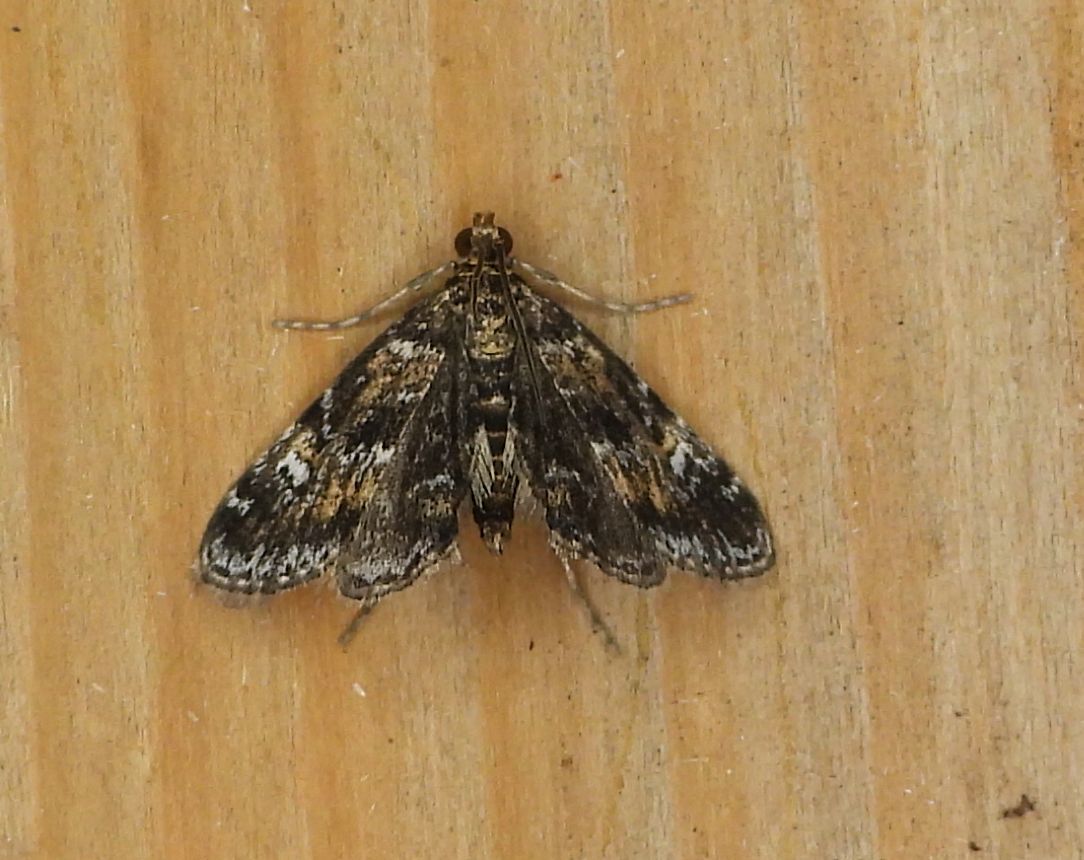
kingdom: Animalia
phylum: Arthropoda
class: Insecta
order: Lepidoptera
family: Crambidae
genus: Elophila
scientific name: Elophila obliteralis
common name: Waterlily leafcutter moth
